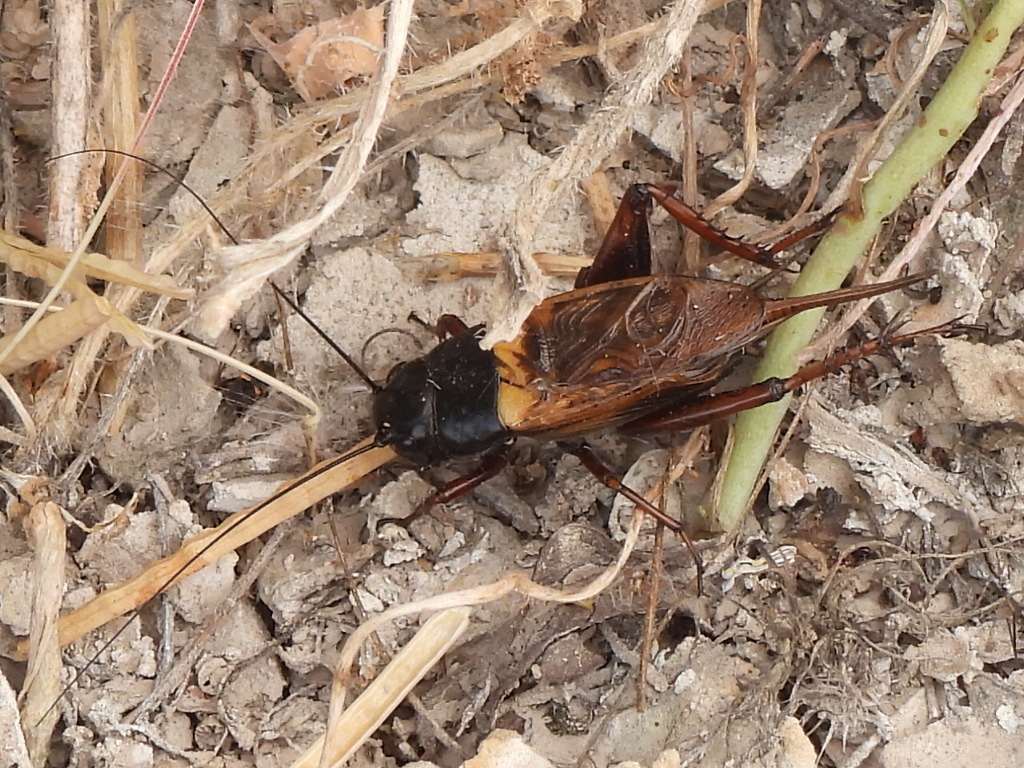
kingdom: Animalia
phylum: Arthropoda
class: Insecta
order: Orthoptera
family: Gryllidae
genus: Gryllus
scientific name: Gryllus bimaculatus
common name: Two-spotted cricket
